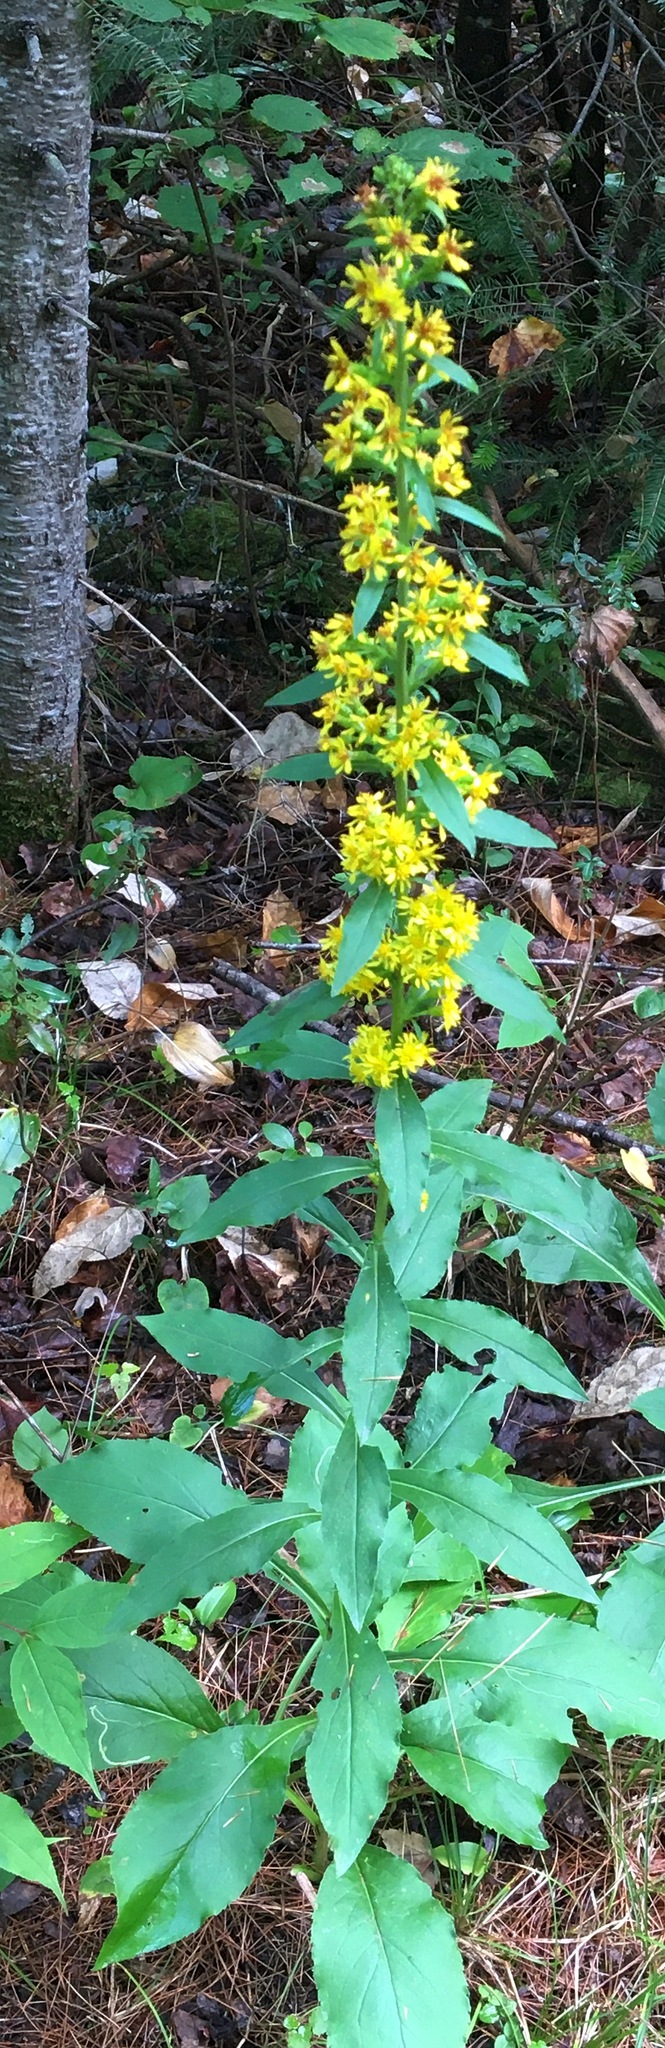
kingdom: Plantae
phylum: Tracheophyta
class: Magnoliopsida
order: Asterales
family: Asteraceae
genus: Solidago
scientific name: Solidago squarrosa
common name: Stout goldenrod
